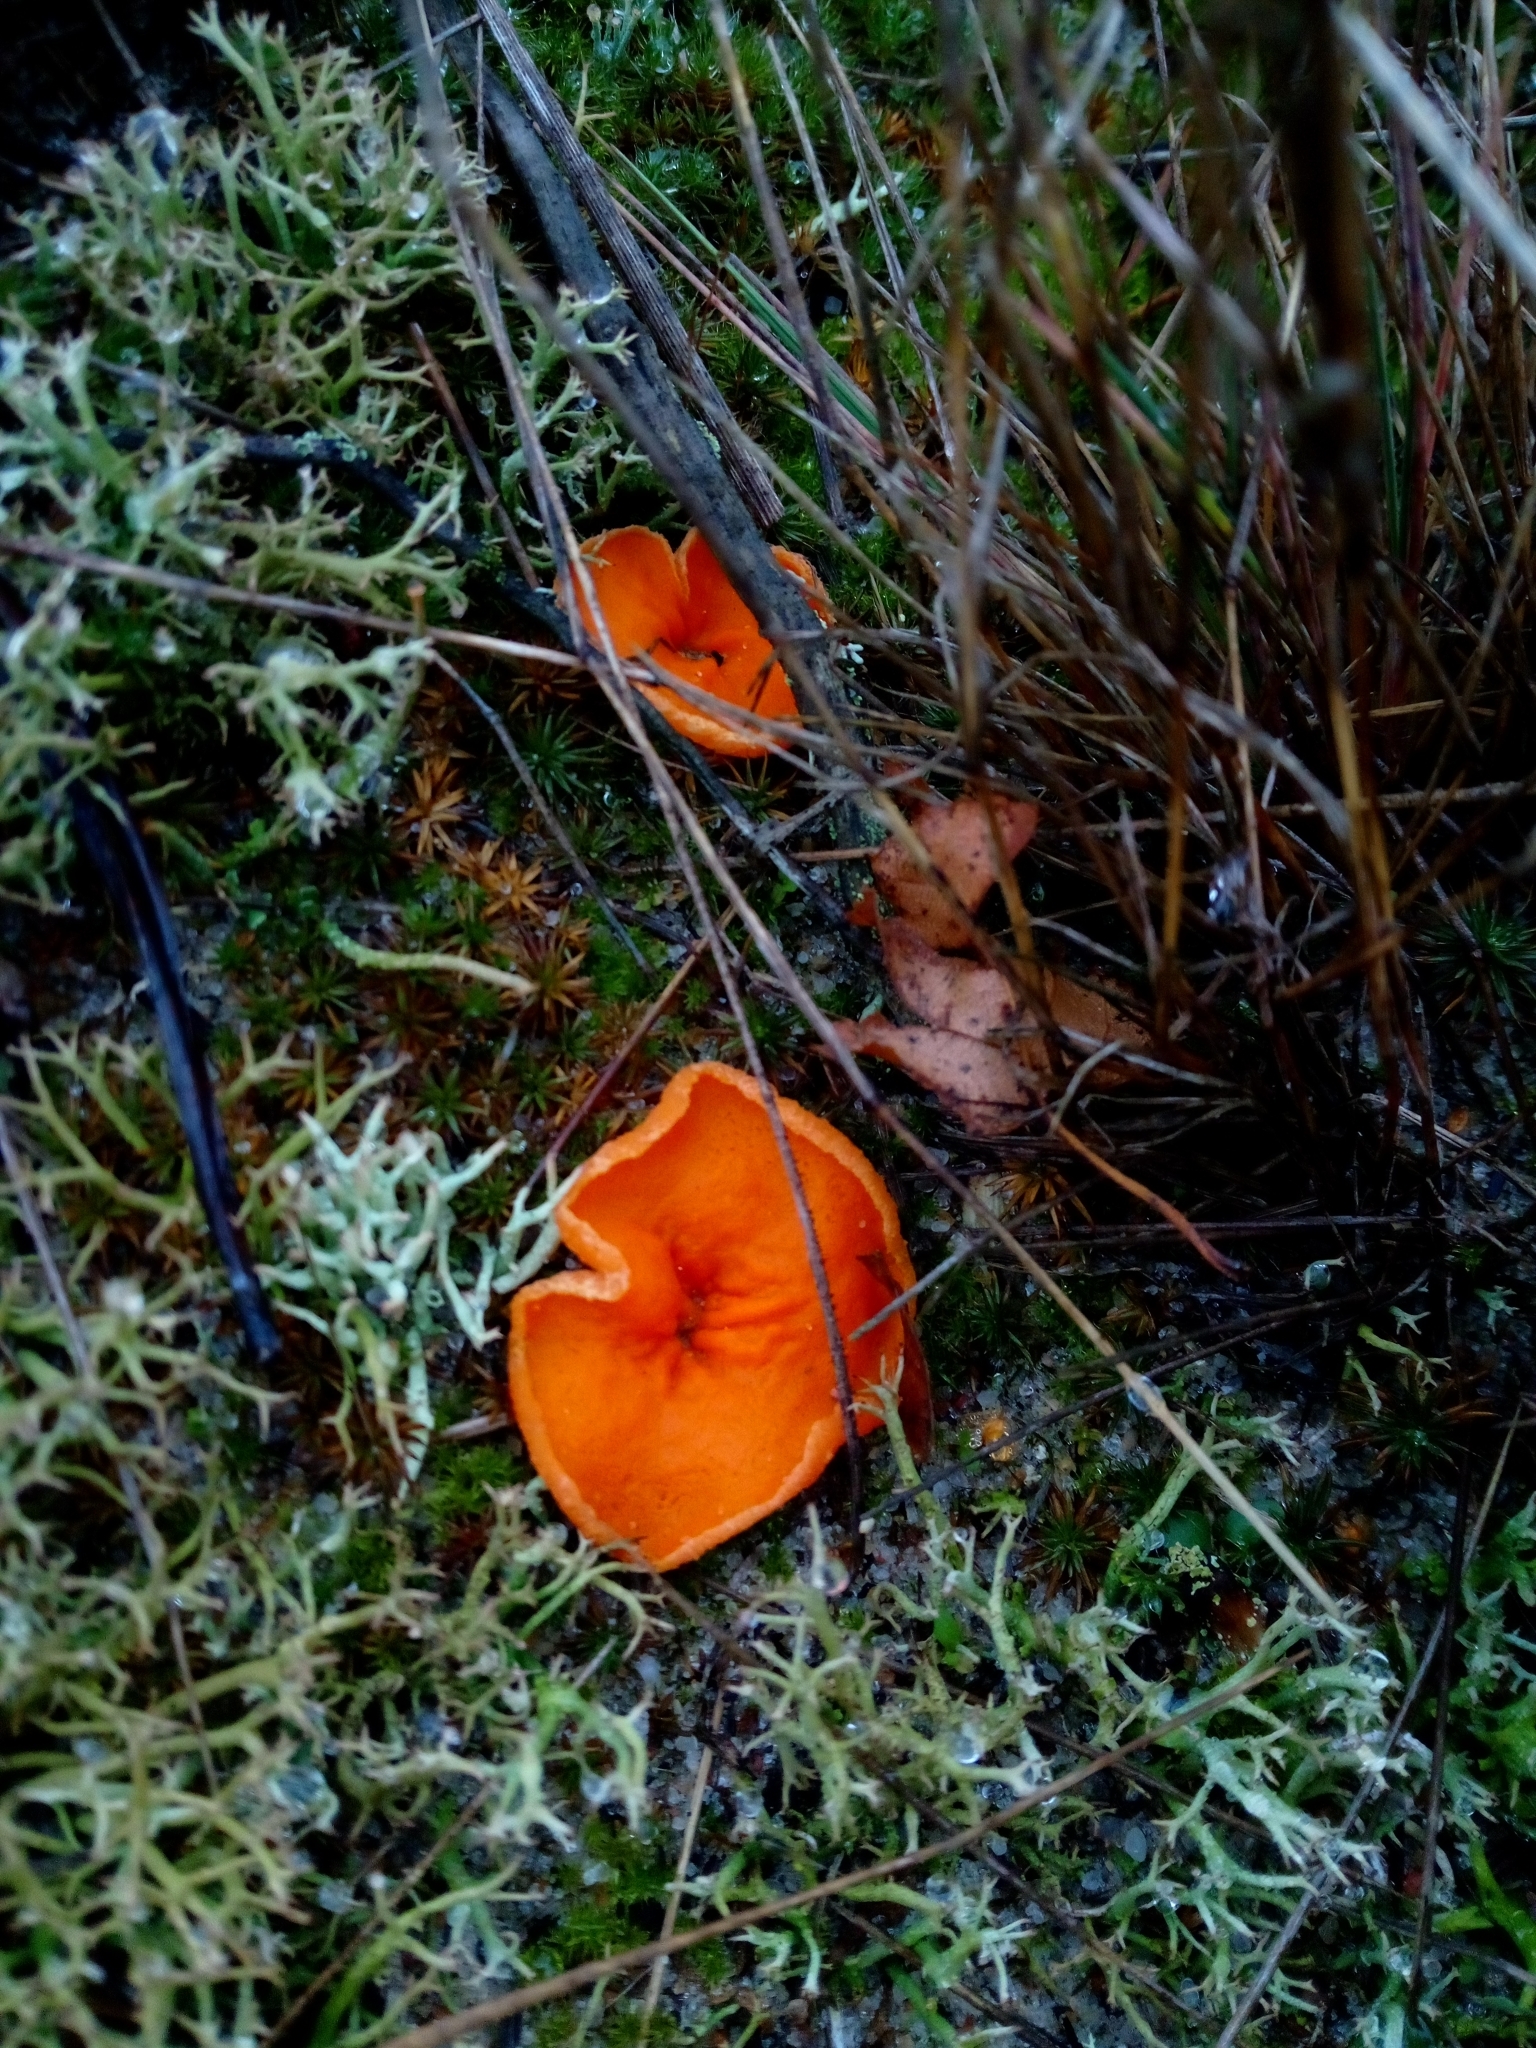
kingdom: Fungi
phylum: Ascomycota
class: Pezizomycetes
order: Pezizales
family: Pyronemataceae
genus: Aleuria
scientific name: Aleuria aurantia
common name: Orange peel fungus
